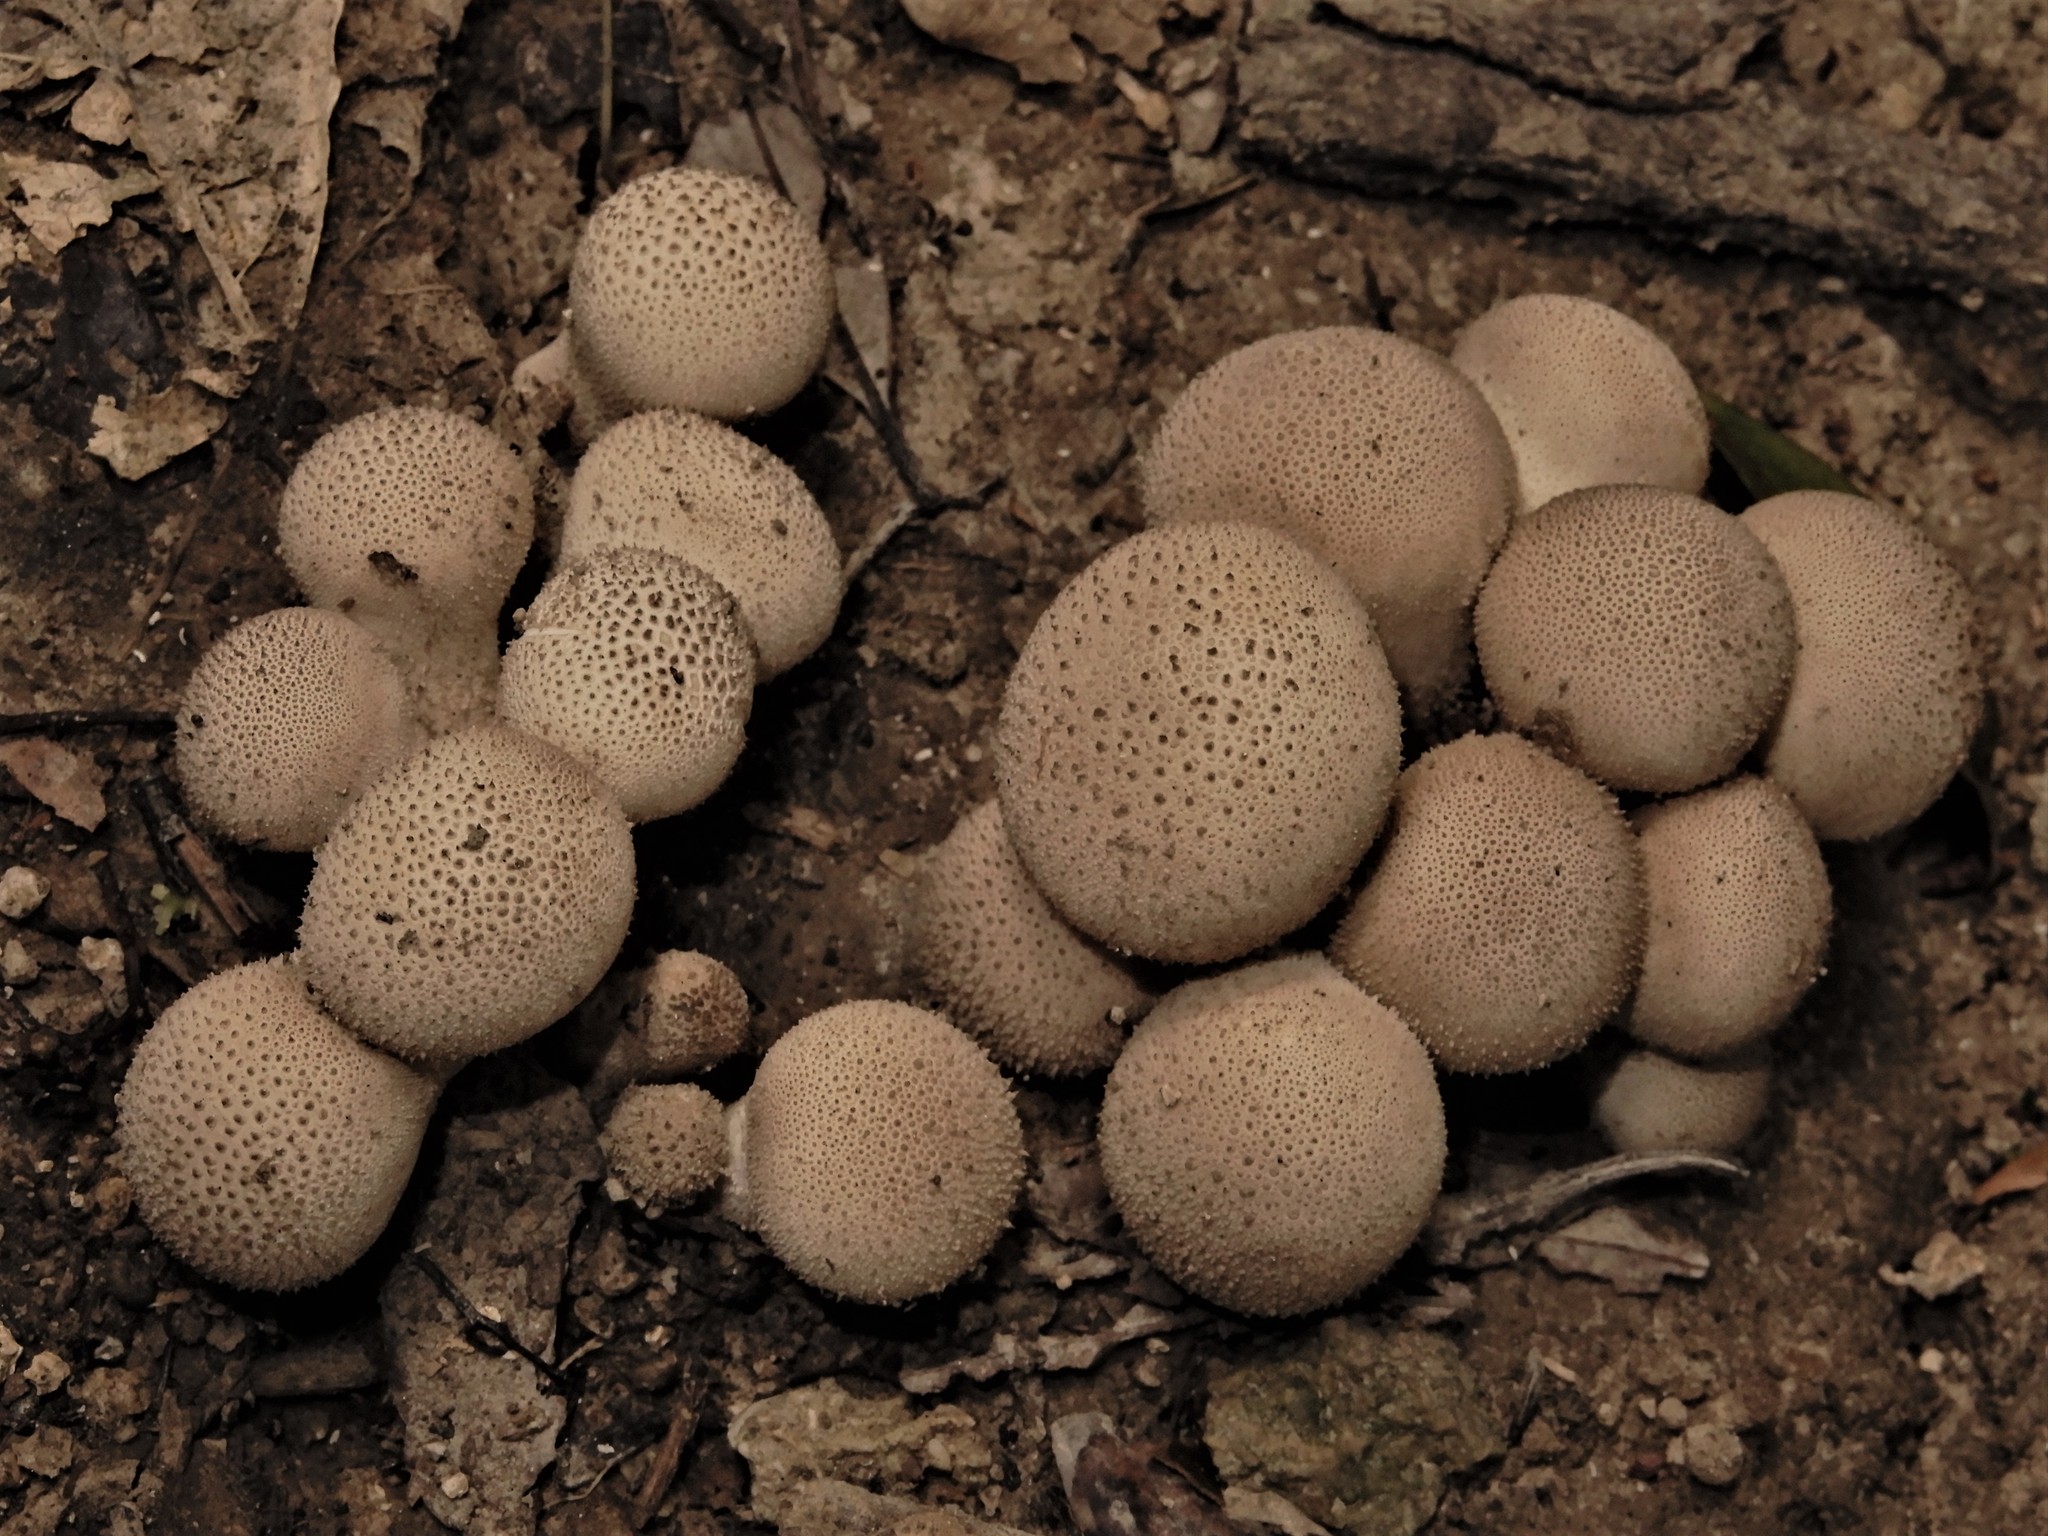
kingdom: Fungi
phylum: Basidiomycota
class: Agaricomycetes
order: Agaricales
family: Lycoperdaceae
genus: Lycoperdon
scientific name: Lycoperdon
